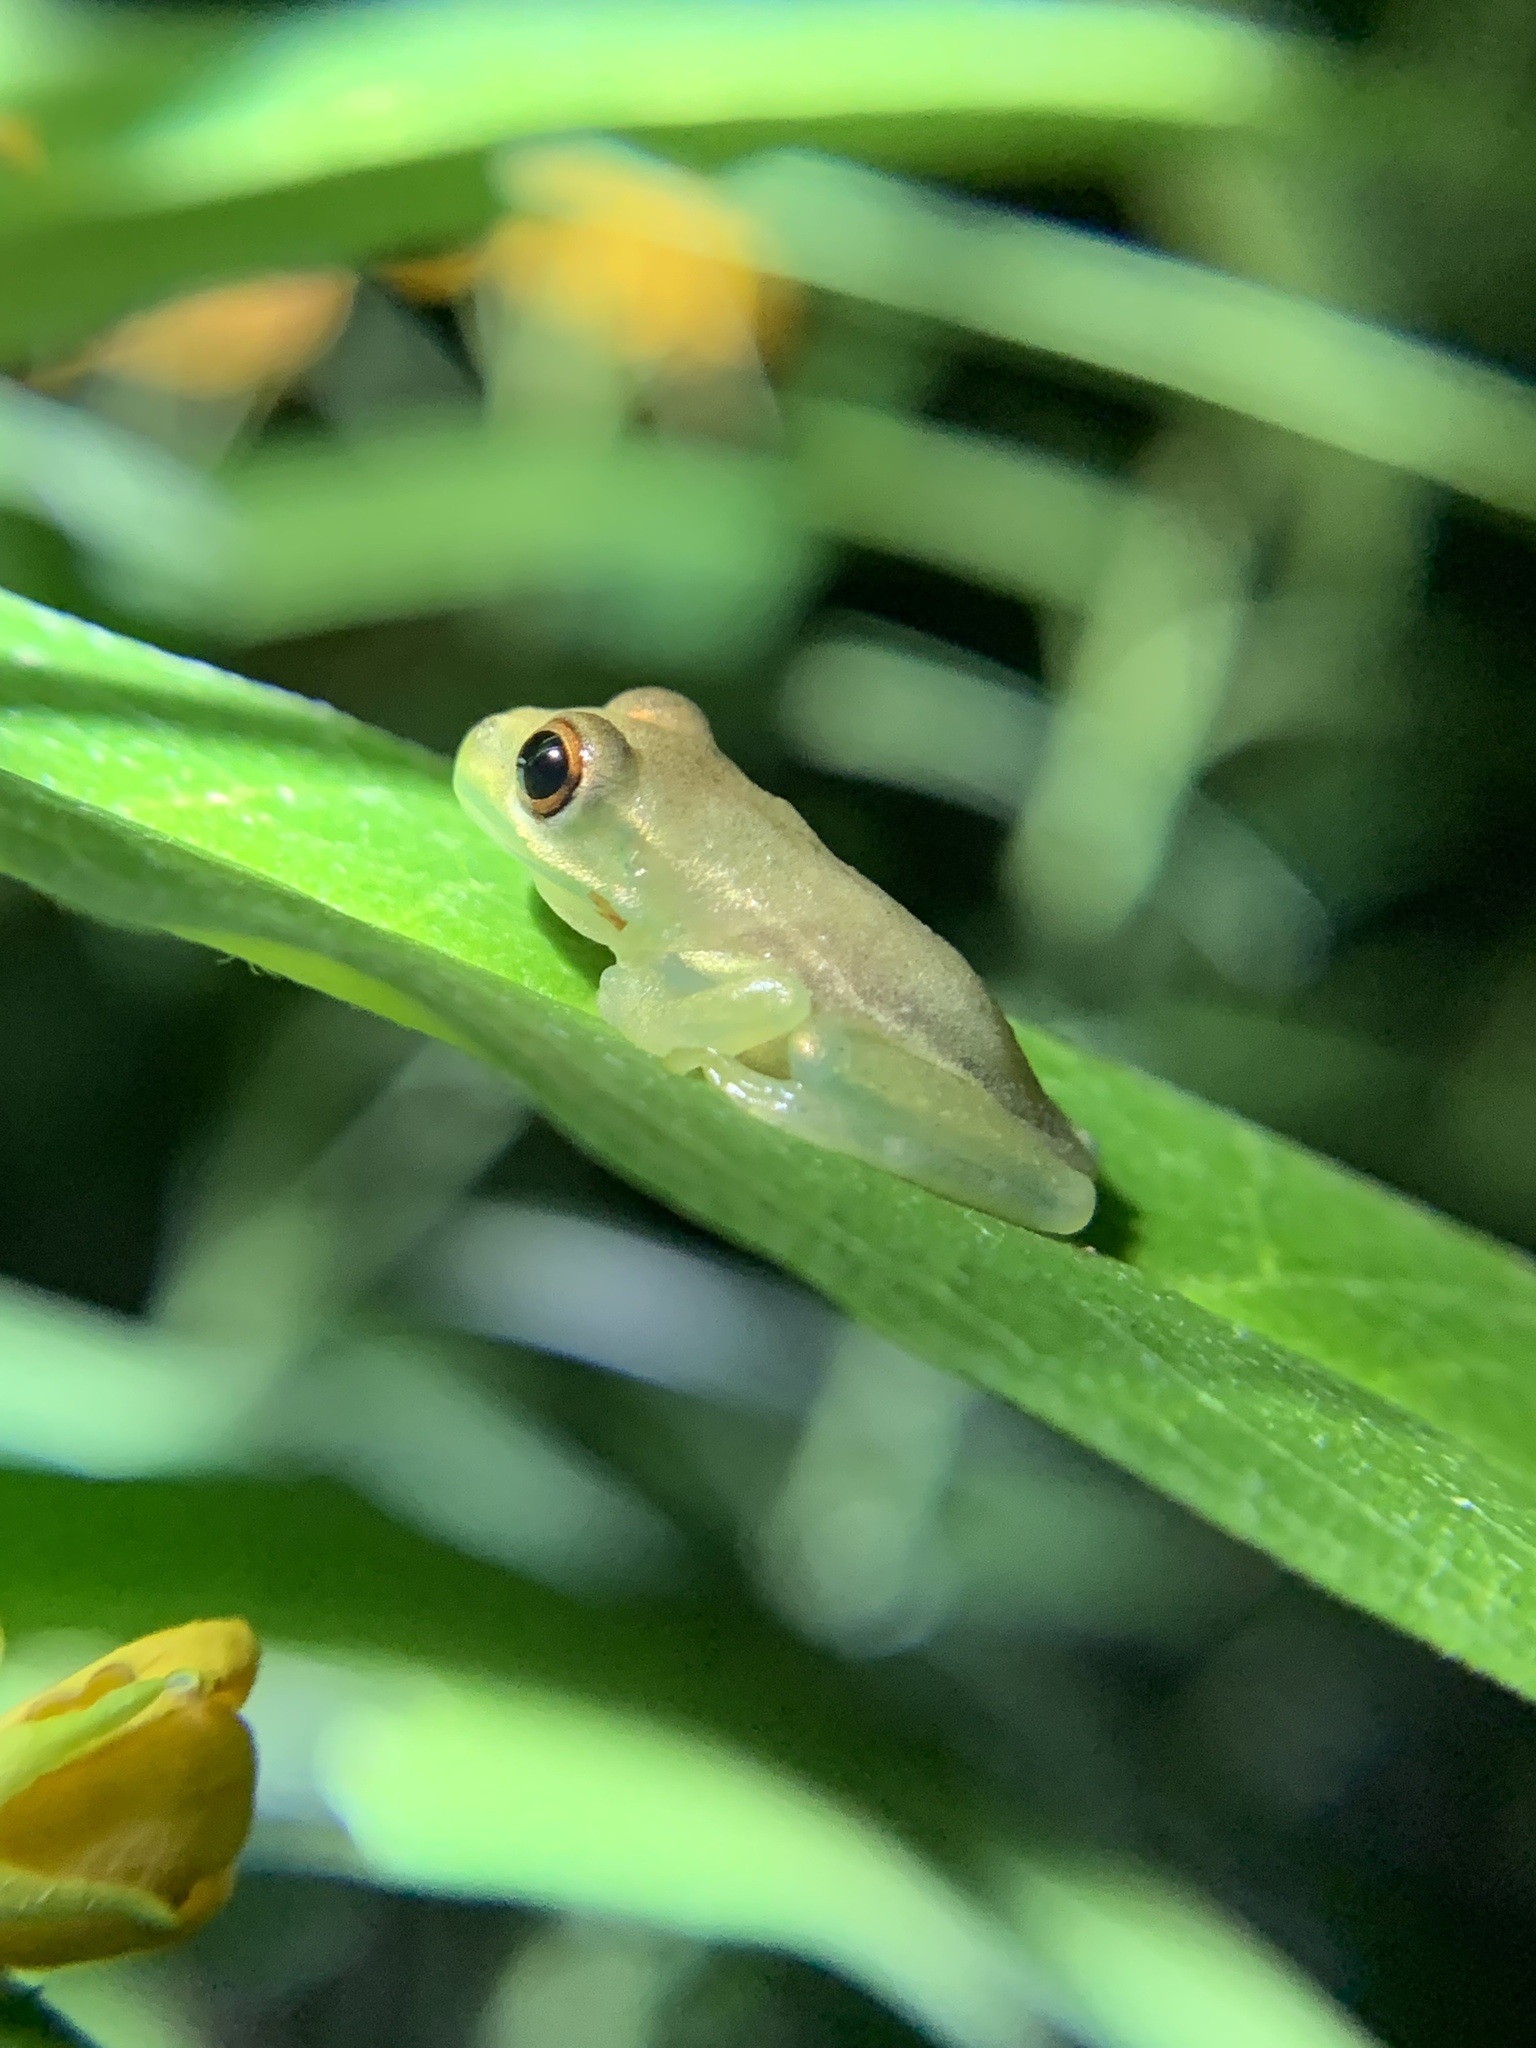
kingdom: Animalia
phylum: Chordata
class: Amphibia
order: Anura
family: Hylidae
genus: Osteopilus
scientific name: Osteopilus septentrionalis
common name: Cuban treefrog
